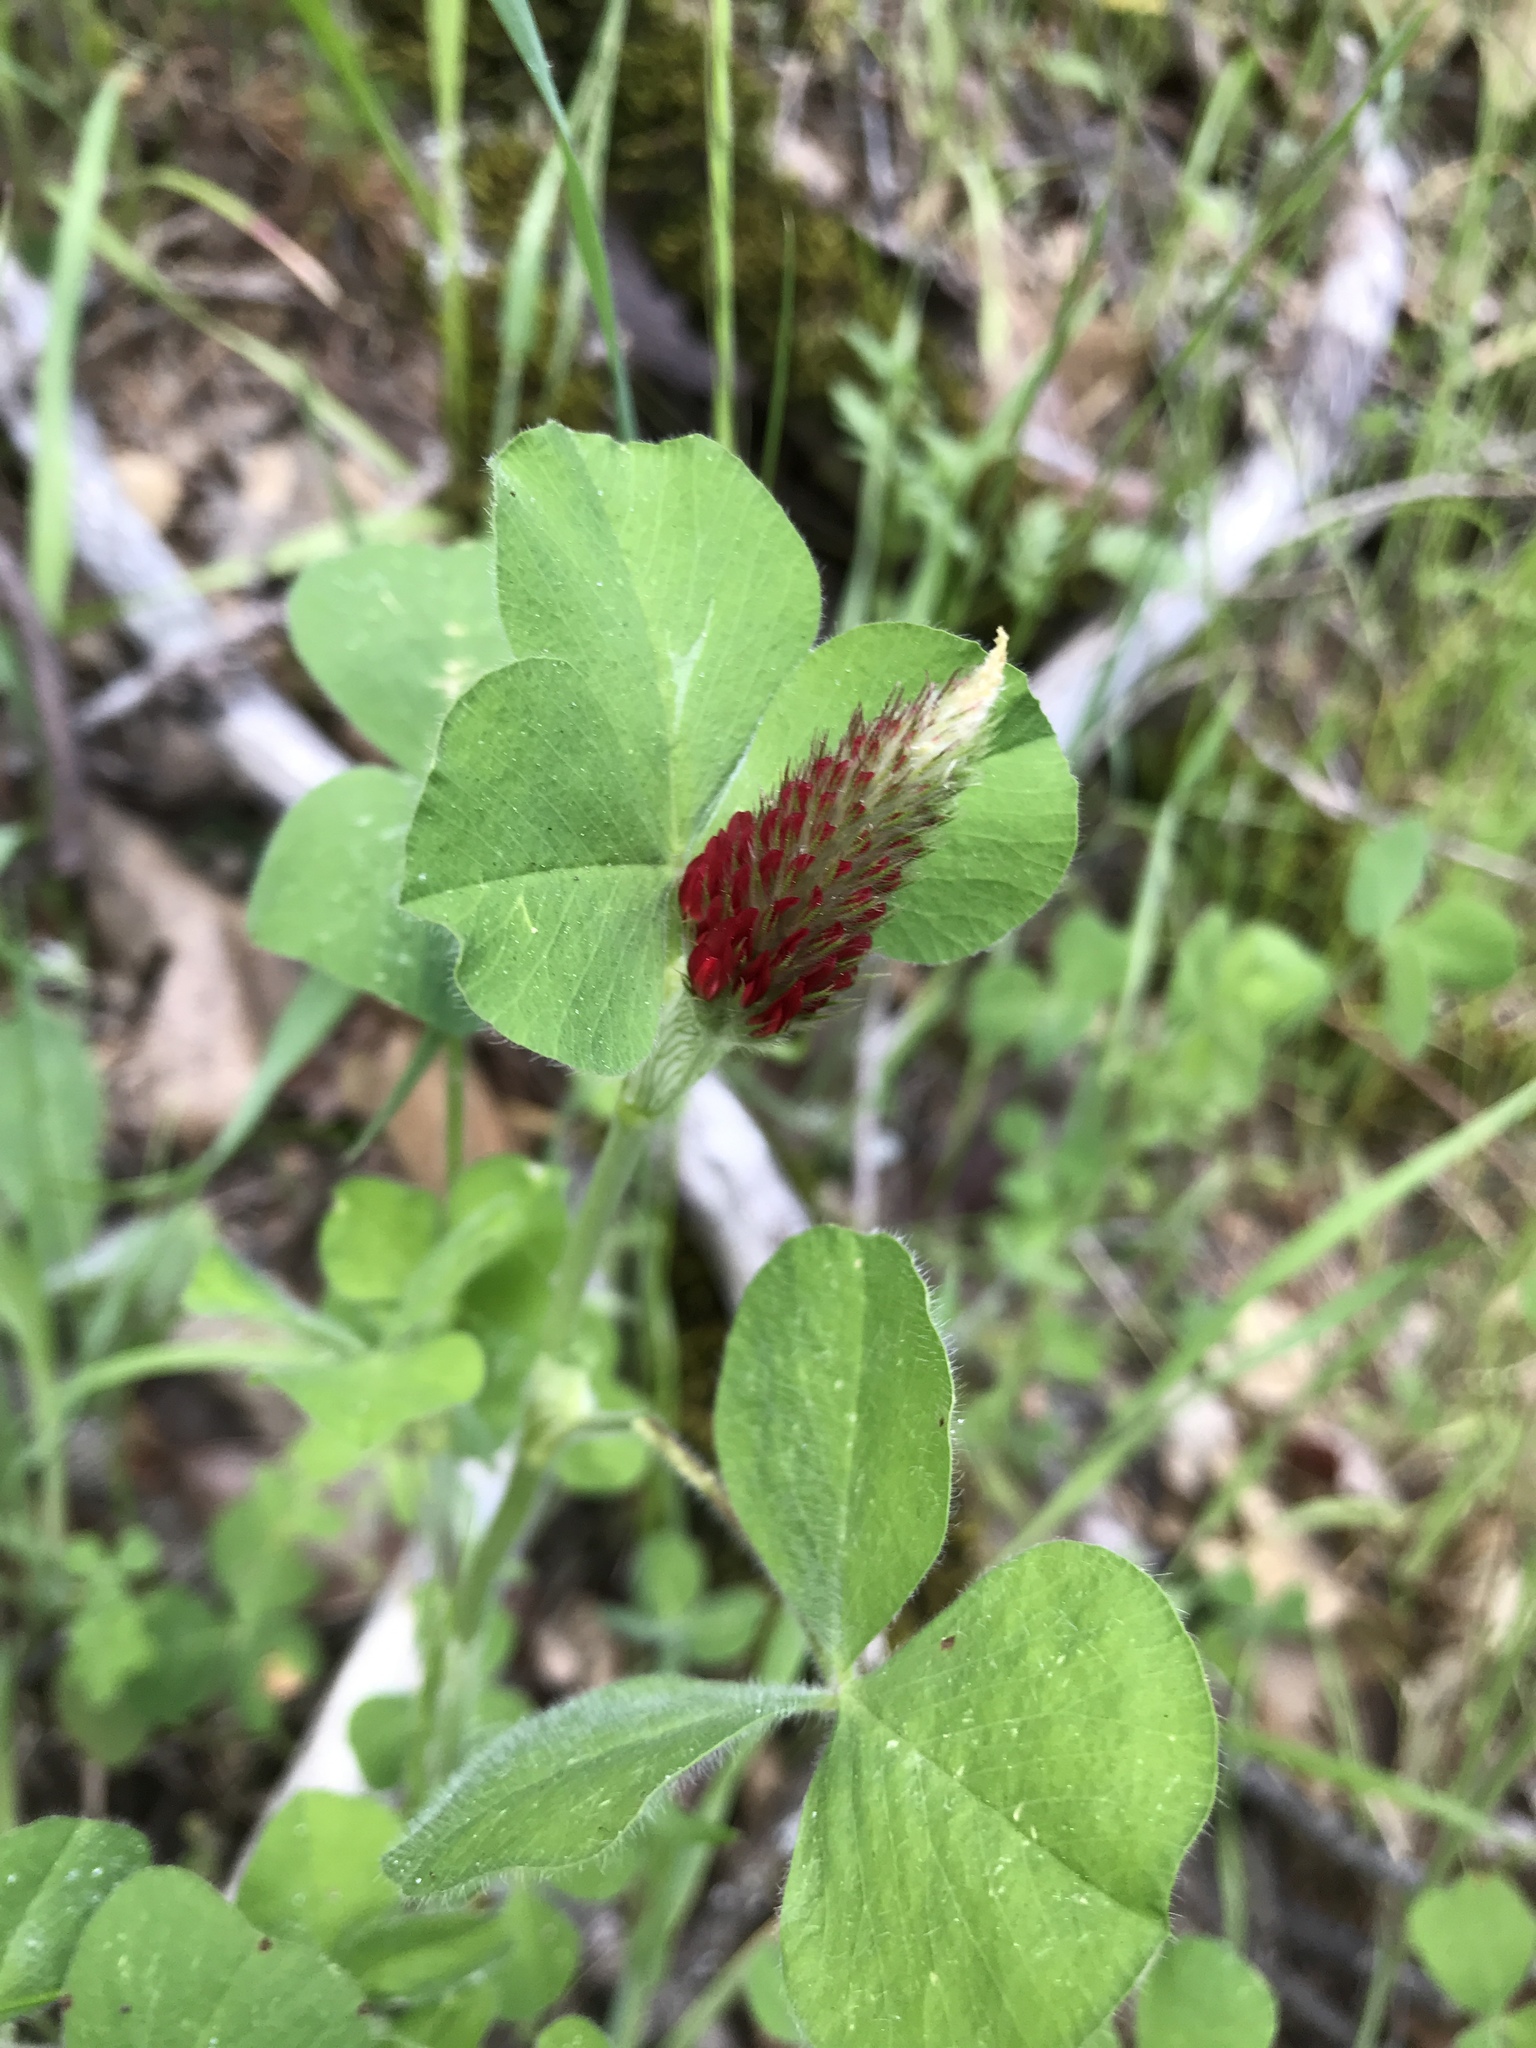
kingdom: Plantae
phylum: Tracheophyta
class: Magnoliopsida
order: Fabales
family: Fabaceae
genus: Trifolium
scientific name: Trifolium incarnatum
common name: Crimson clover
